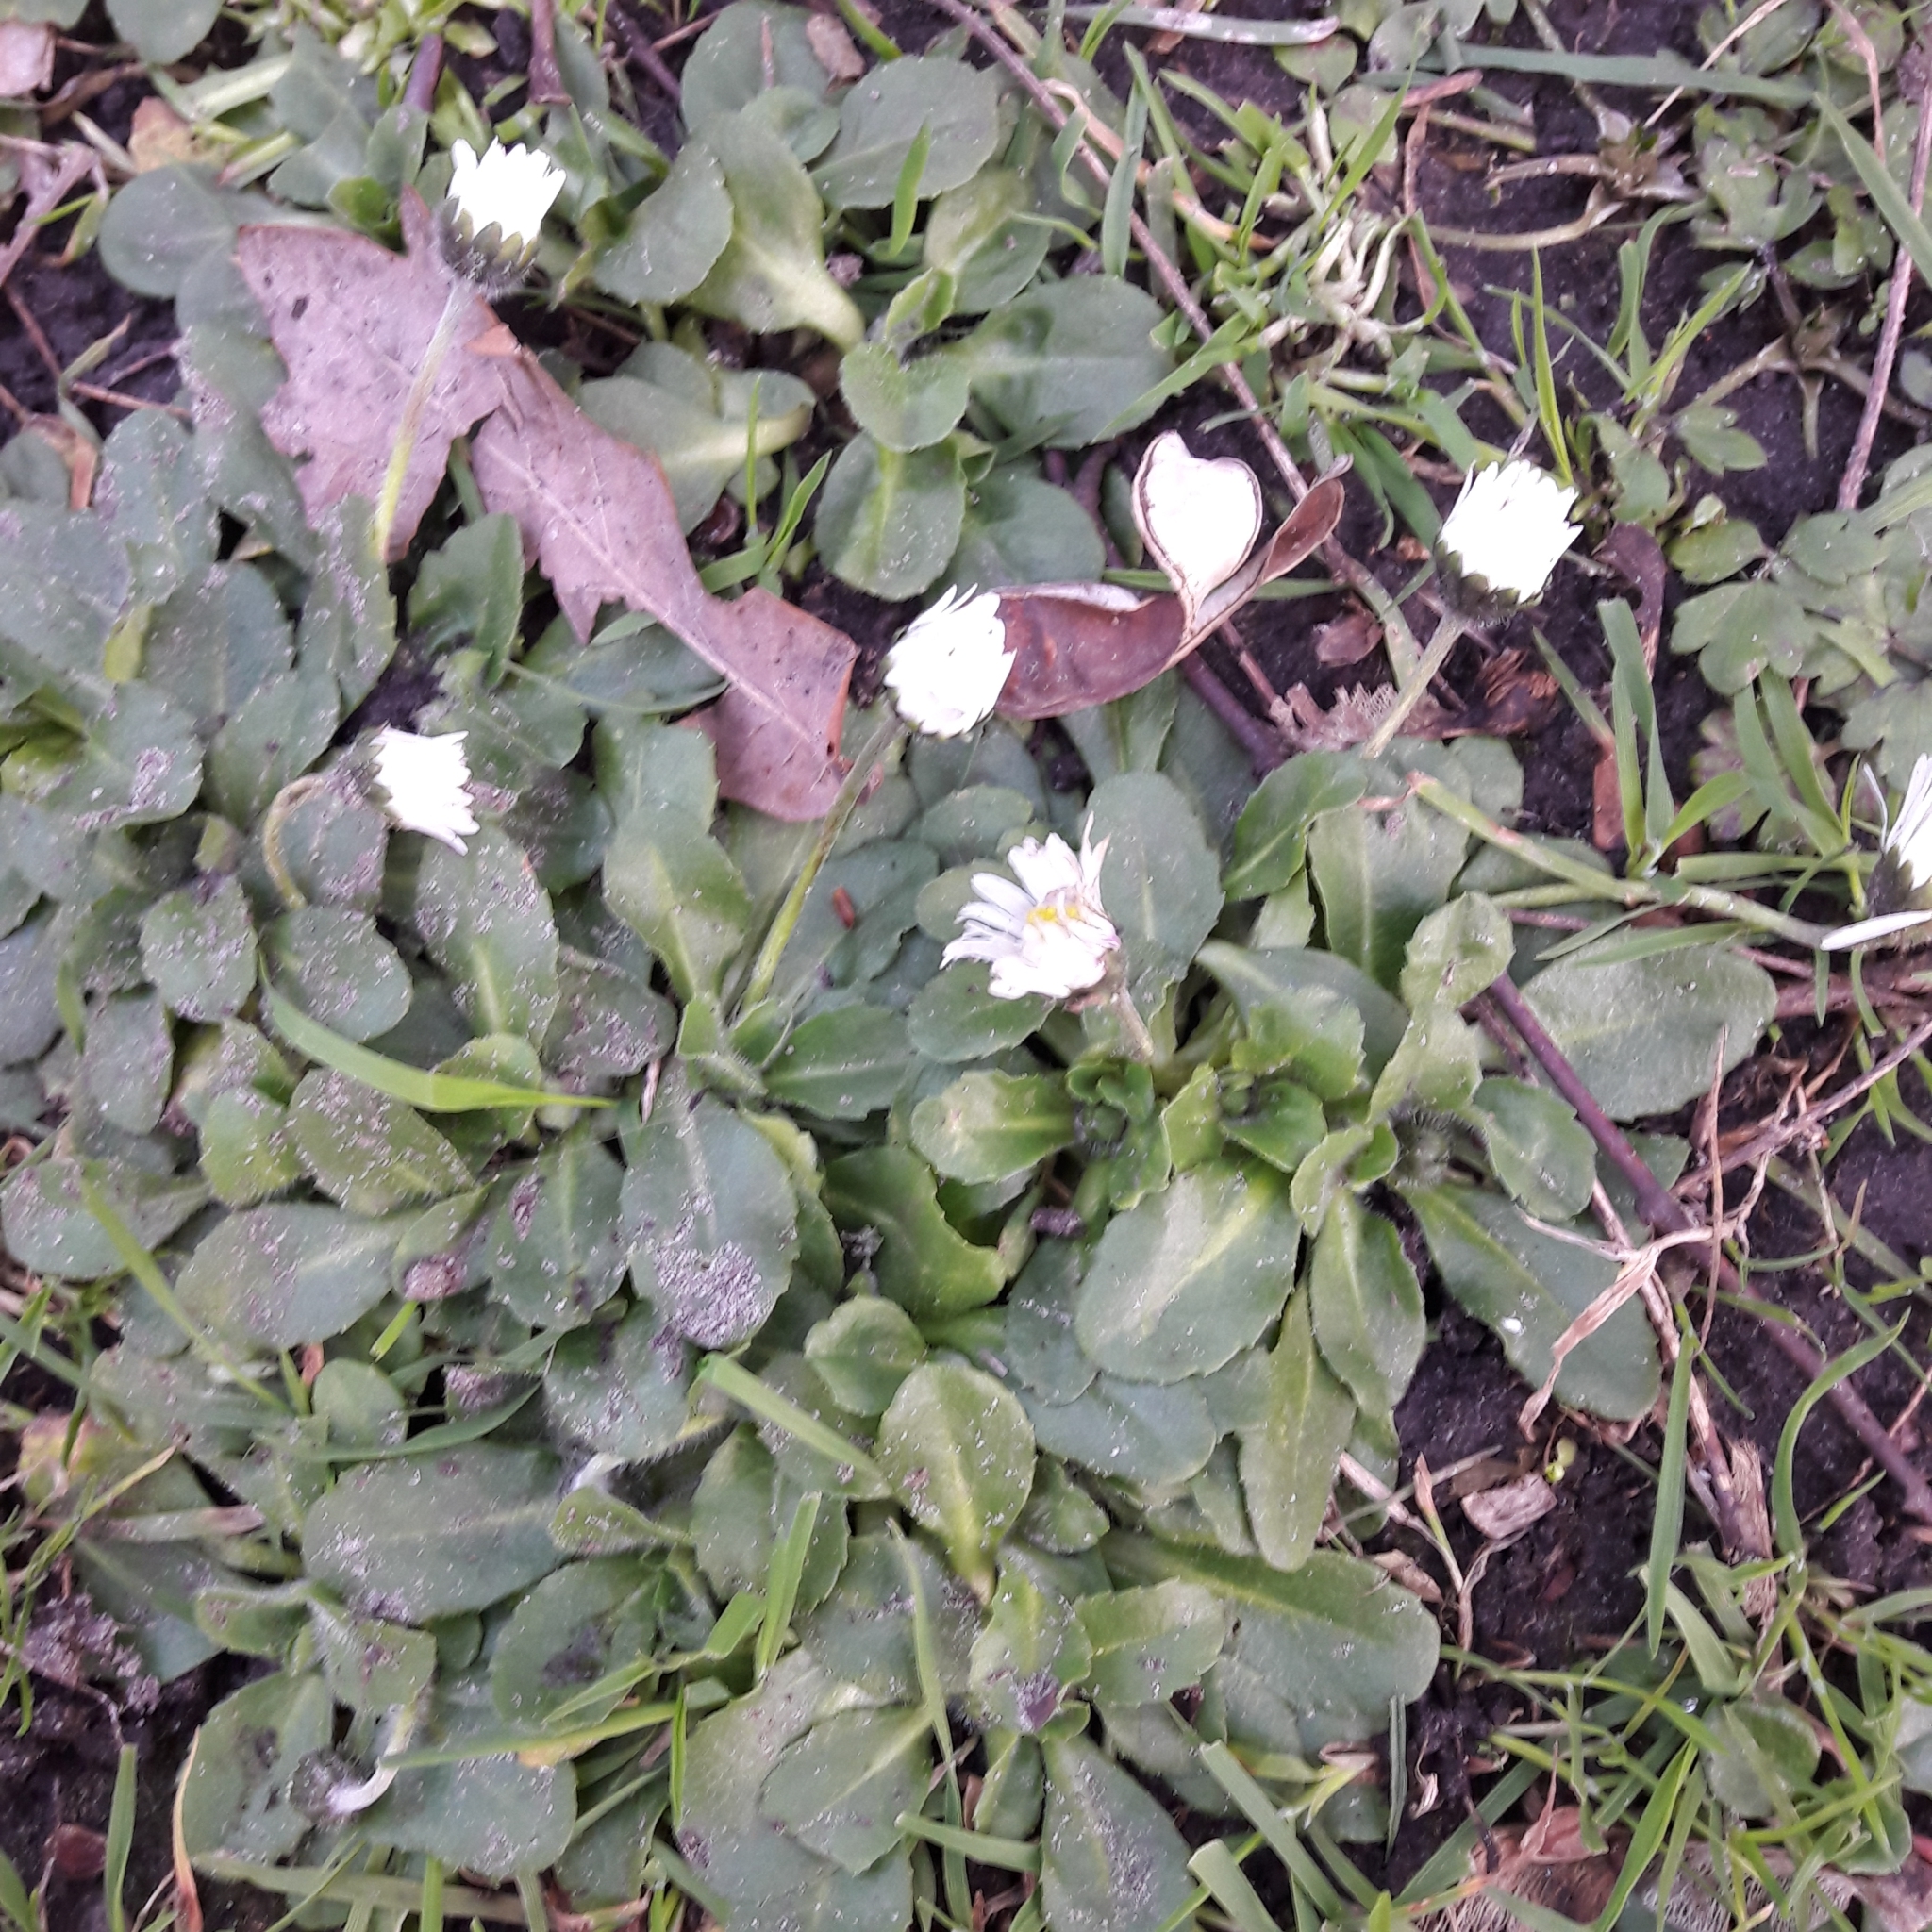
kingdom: Plantae
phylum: Tracheophyta
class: Magnoliopsida
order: Asterales
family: Asteraceae
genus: Bellis
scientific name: Bellis perennis
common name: Lawndaisy
